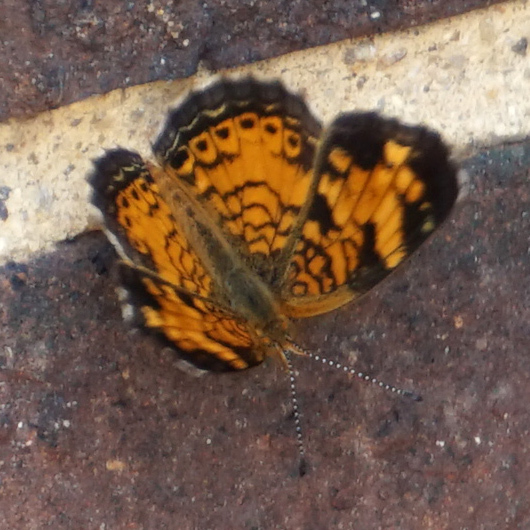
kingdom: Animalia
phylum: Arthropoda
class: Insecta
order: Lepidoptera
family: Nymphalidae
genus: Phyciodes
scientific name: Phyciodes tharos
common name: Pearl crescent
